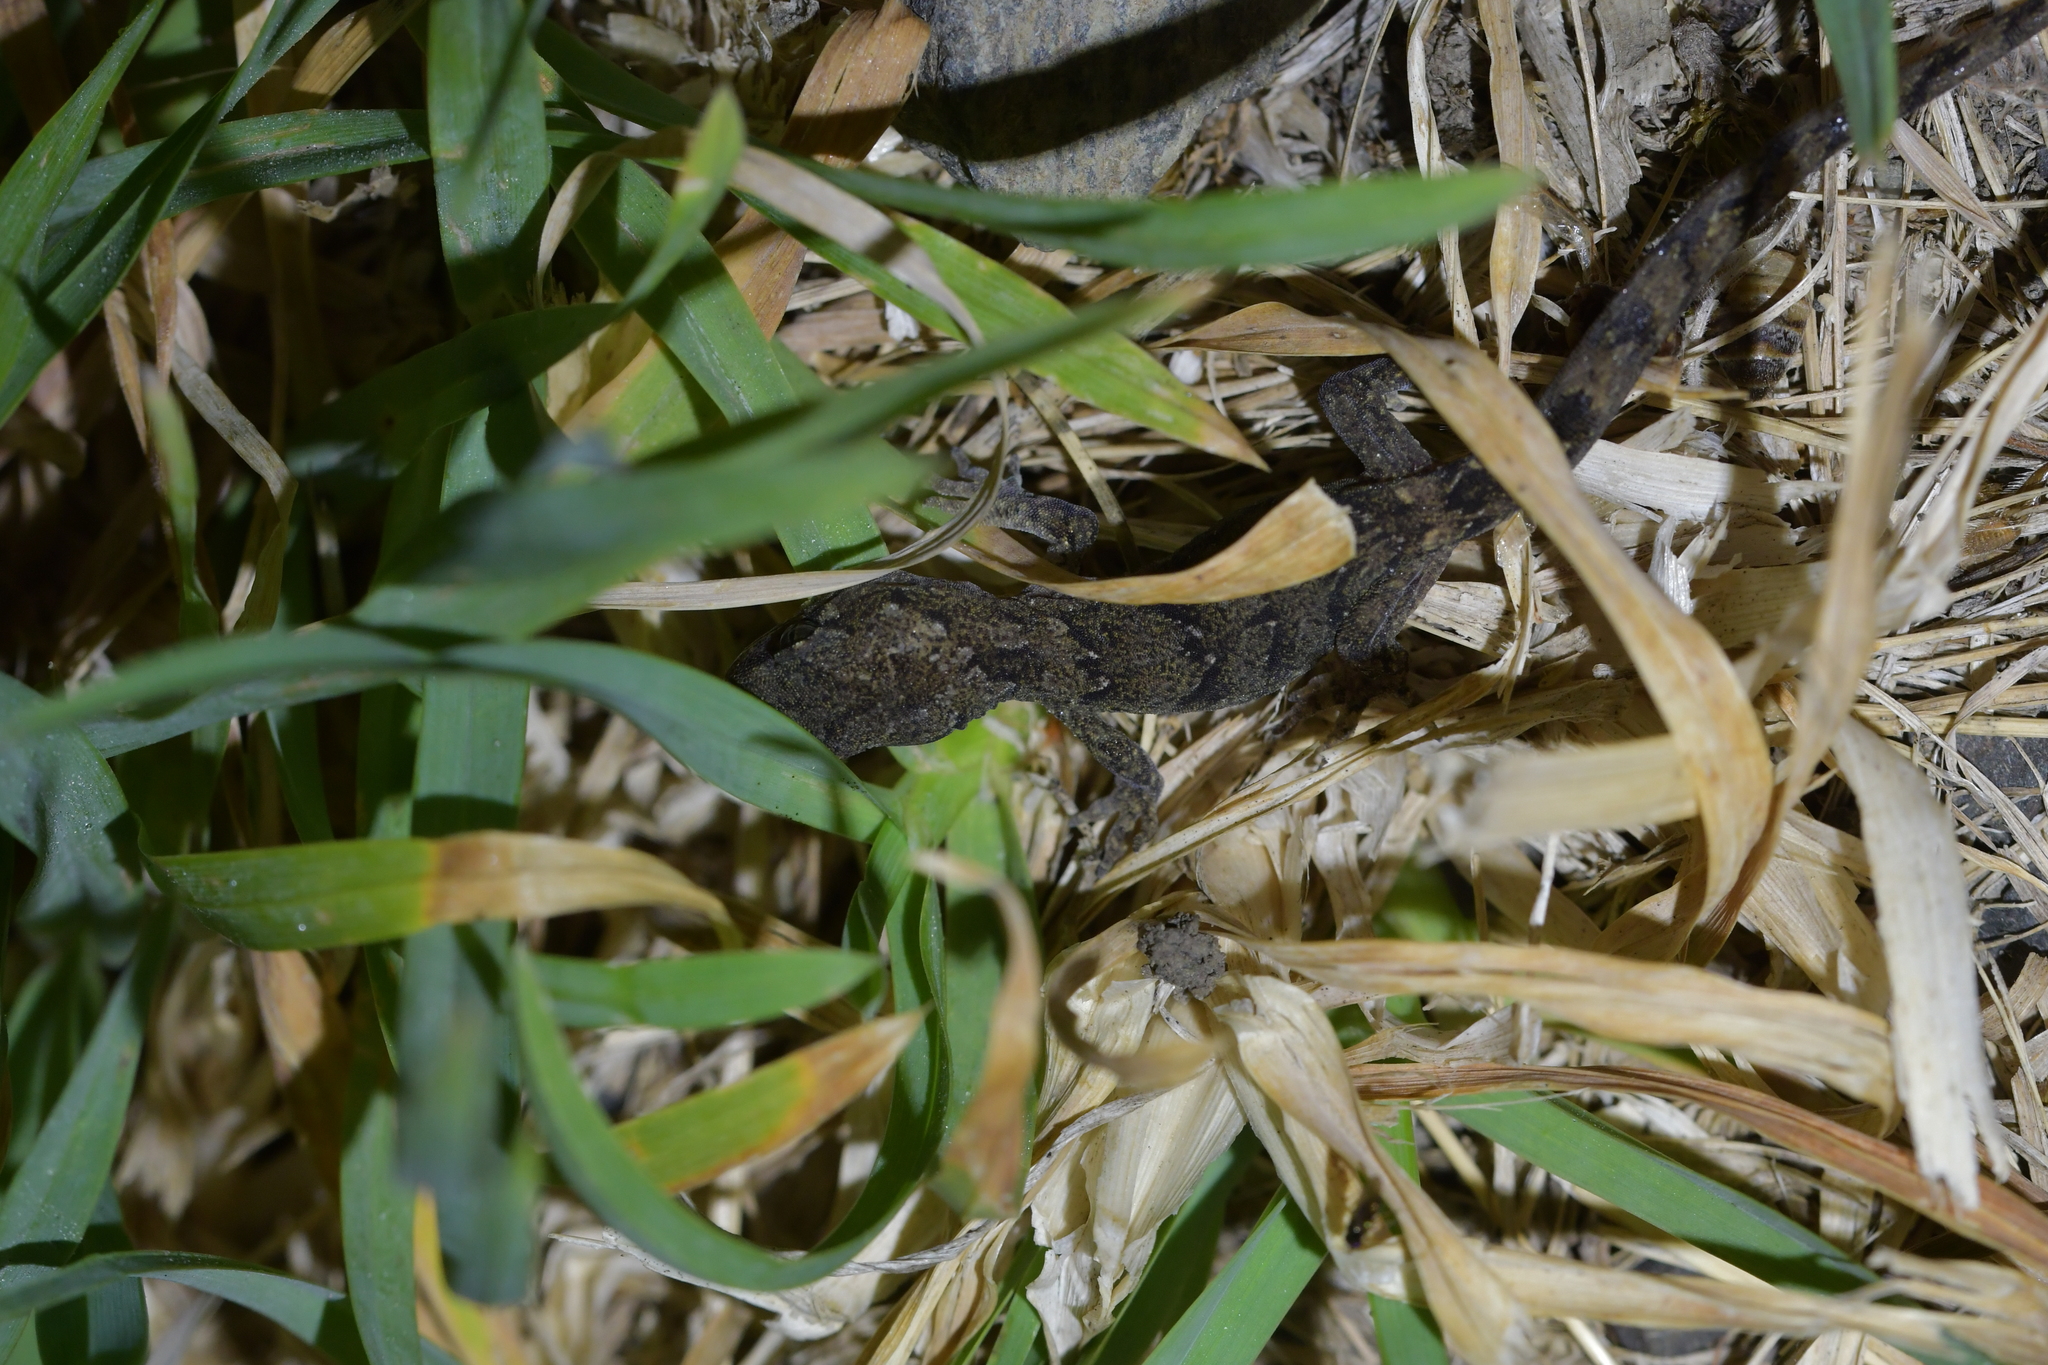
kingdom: Animalia
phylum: Chordata
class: Squamata
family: Diplodactylidae
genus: Woodworthia
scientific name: Woodworthia maculata
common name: Raukawa gecko
